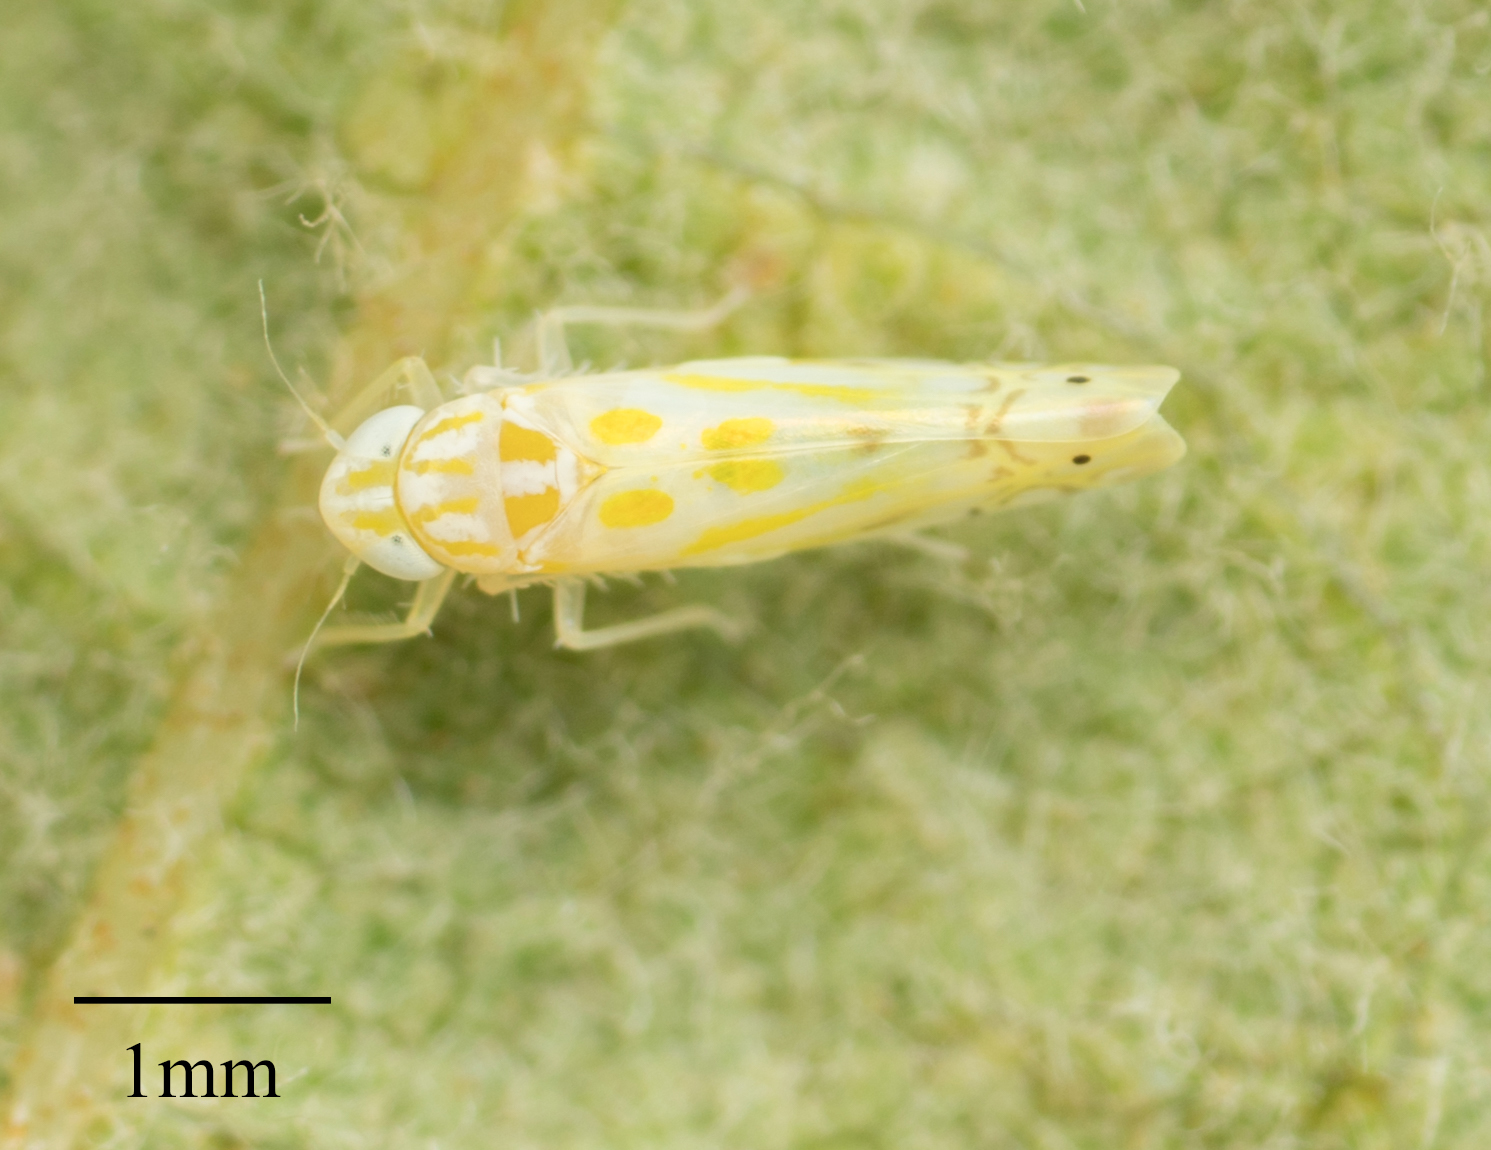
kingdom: Animalia
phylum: Arthropoda
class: Insecta
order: Hemiptera
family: Cicadellidae
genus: Alconeura
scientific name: Alconeura quadrimaculata
